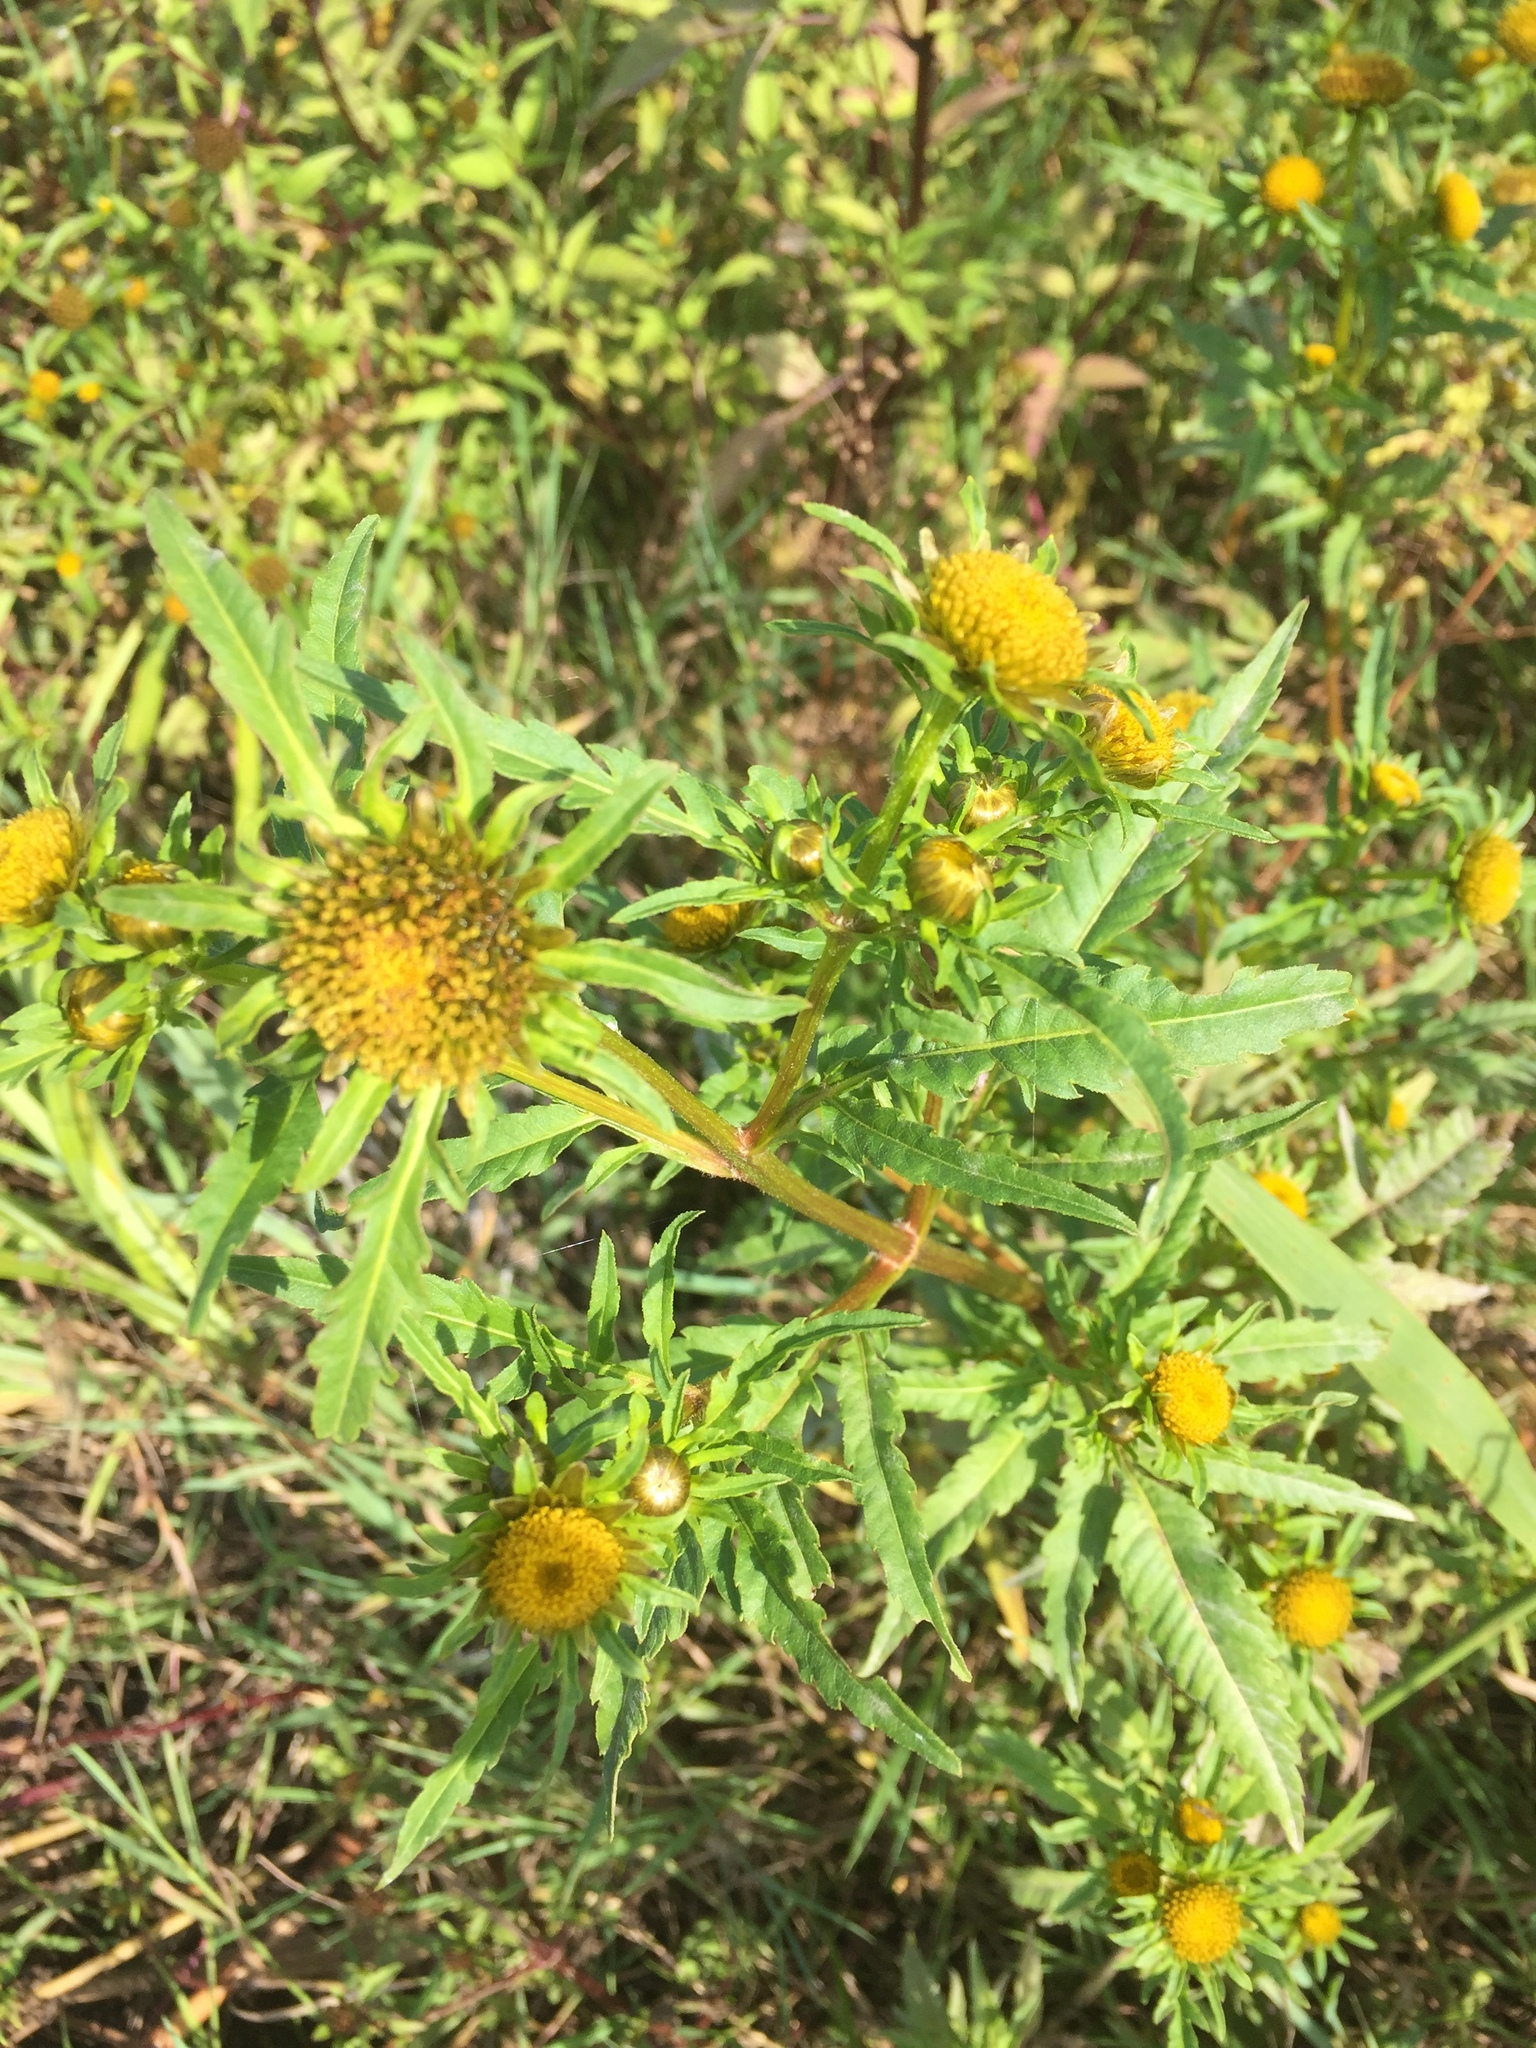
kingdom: Plantae
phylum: Tracheophyta
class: Magnoliopsida
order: Asterales
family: Asteraceae
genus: Bidens
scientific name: Bidens radiata
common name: Radiating bur-marigold
